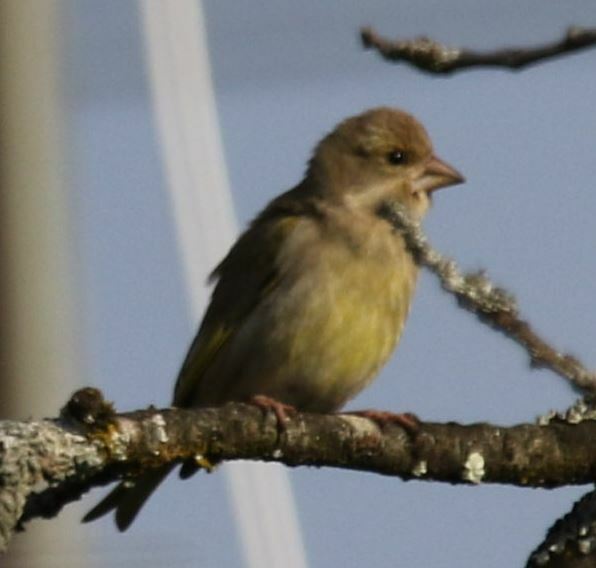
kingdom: Plantae
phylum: Tracheophyta
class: Liliopsida
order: Poales
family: Poaceae
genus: Chloris
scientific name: Chloris chloris
